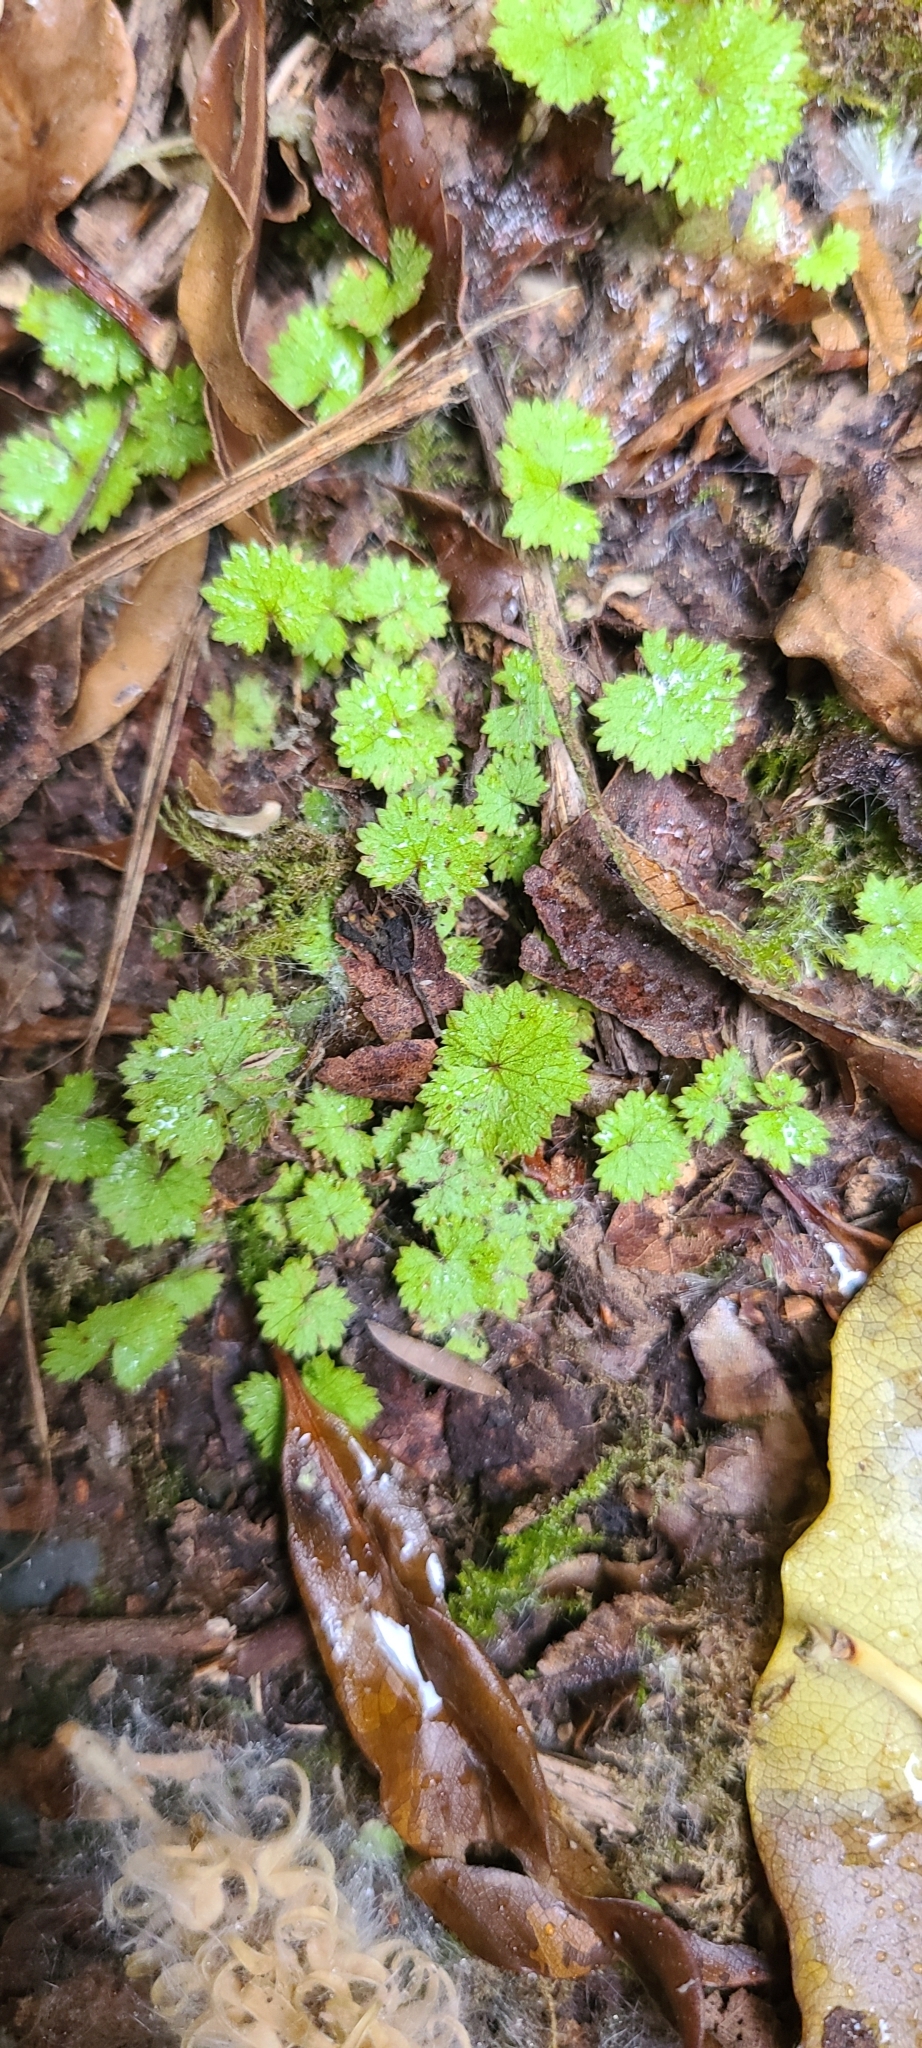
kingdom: Plantae
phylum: Tracheophyta
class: Magnoliopsida
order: Apiales
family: Araliaceae
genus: Hydrocotyle
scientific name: Hydrocotyle moschata
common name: Hairy pennywort
